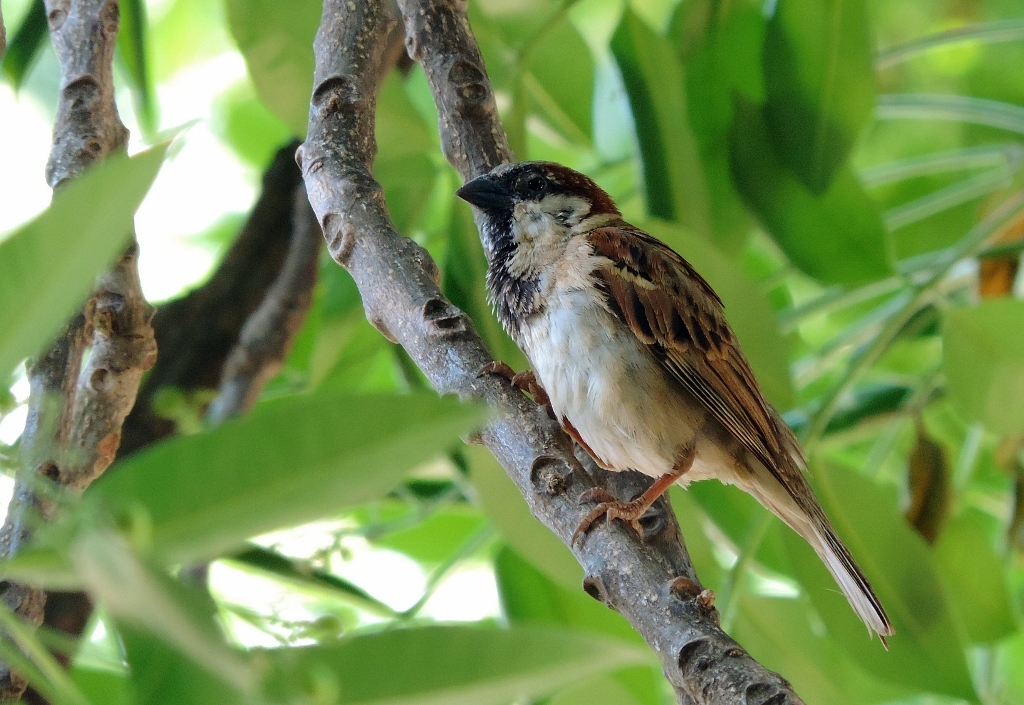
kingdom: Animalia
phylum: Chordata
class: Aves
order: Passeriformes
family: Passeridae
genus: Passer
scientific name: Passer domesticus
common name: House sparrow
